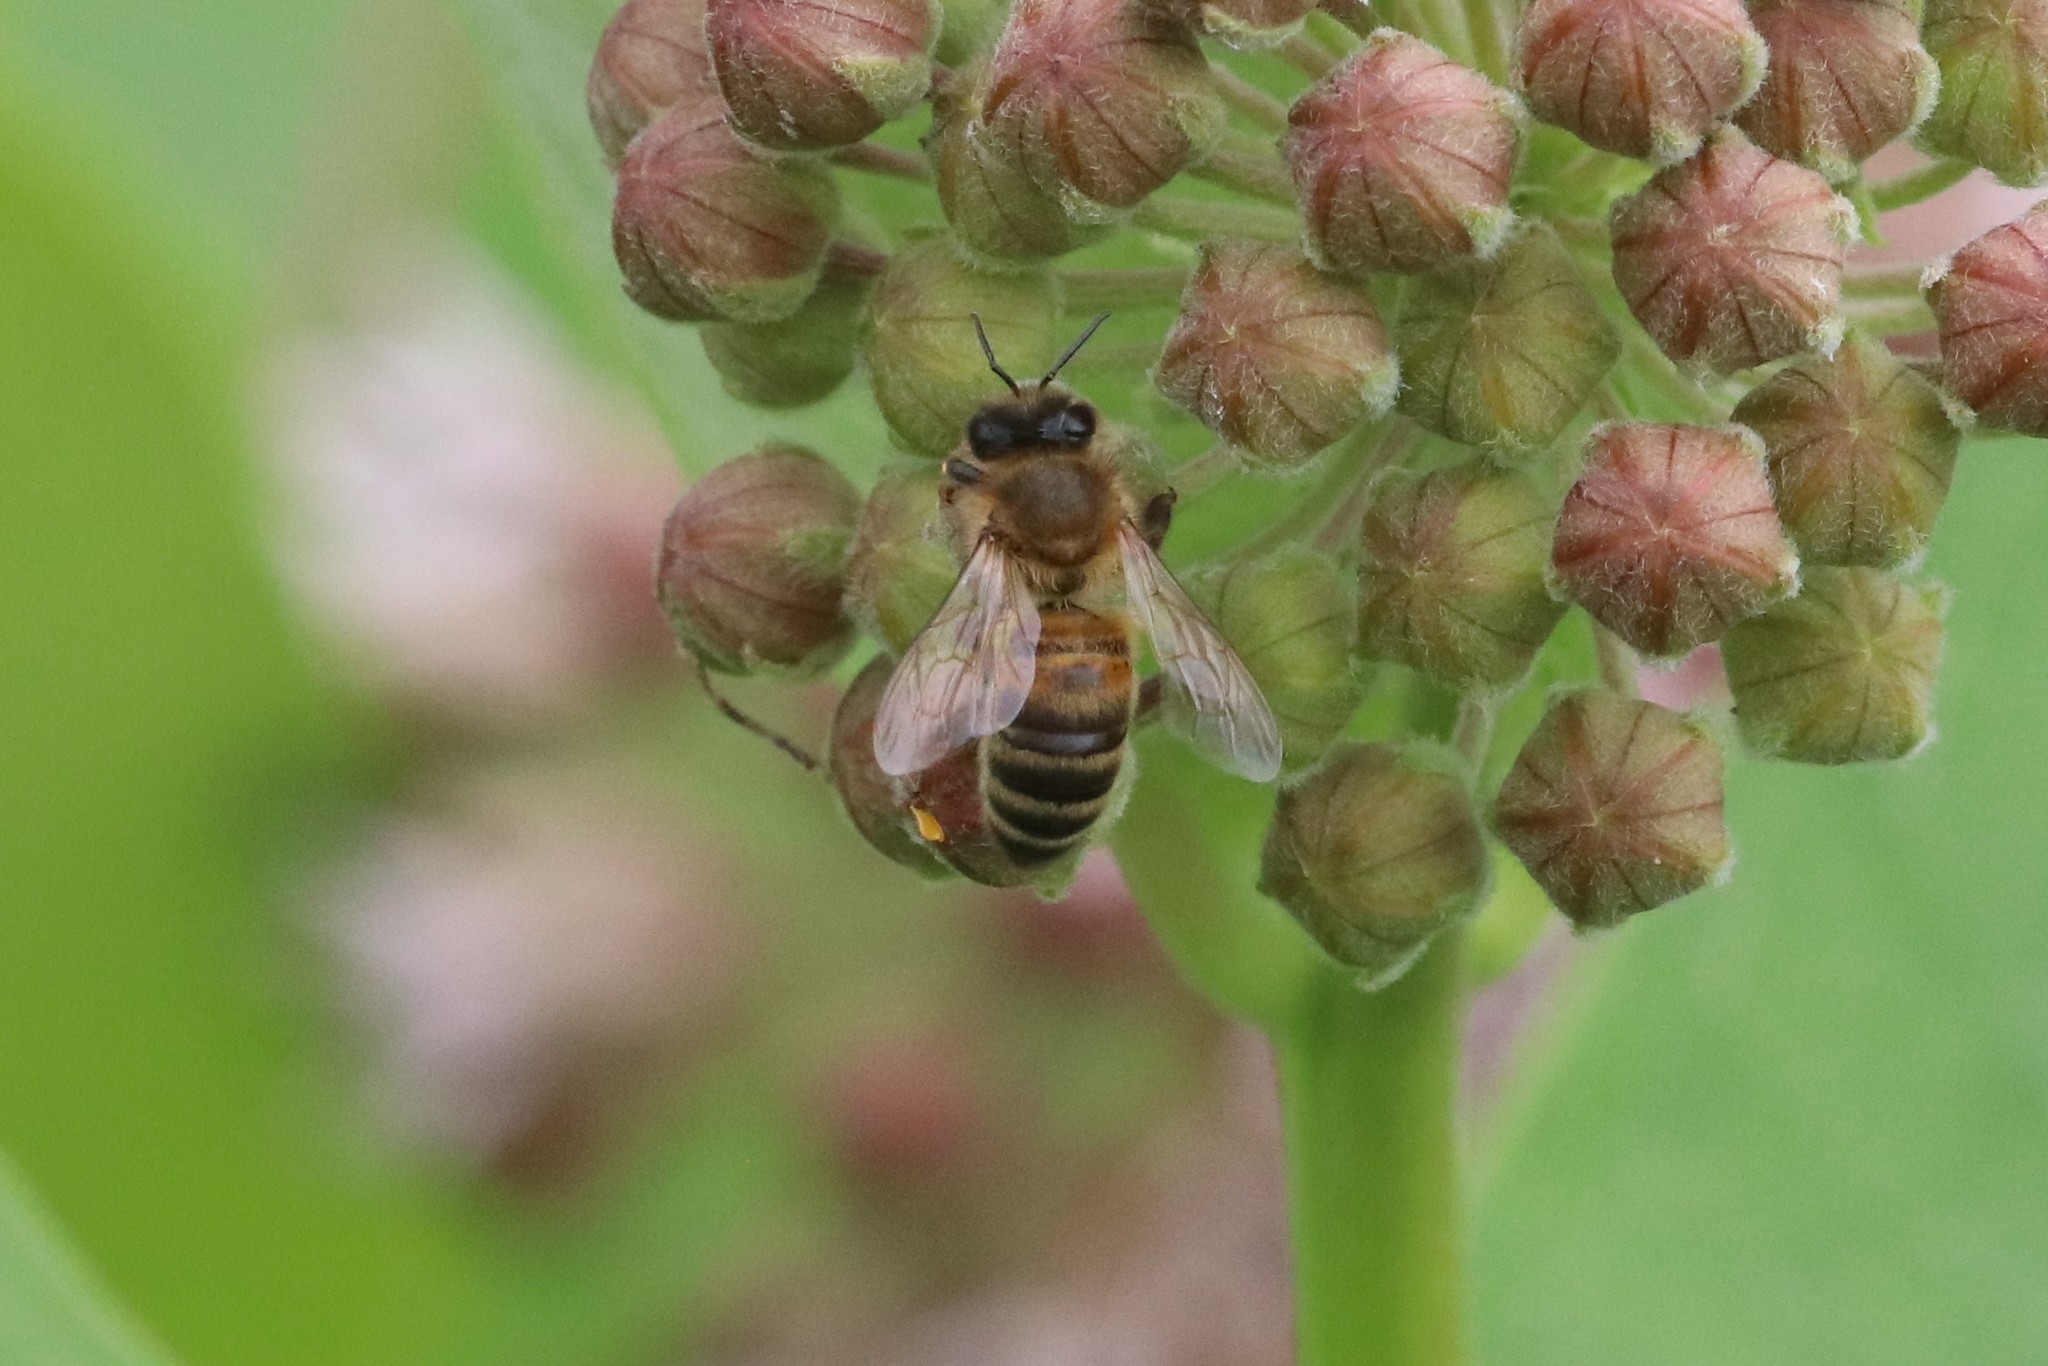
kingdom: Animalia
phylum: Arthropoda
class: Insecta
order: Hymenoptera
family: Apidae
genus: Apis
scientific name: Apis mellifera
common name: Honey bee
